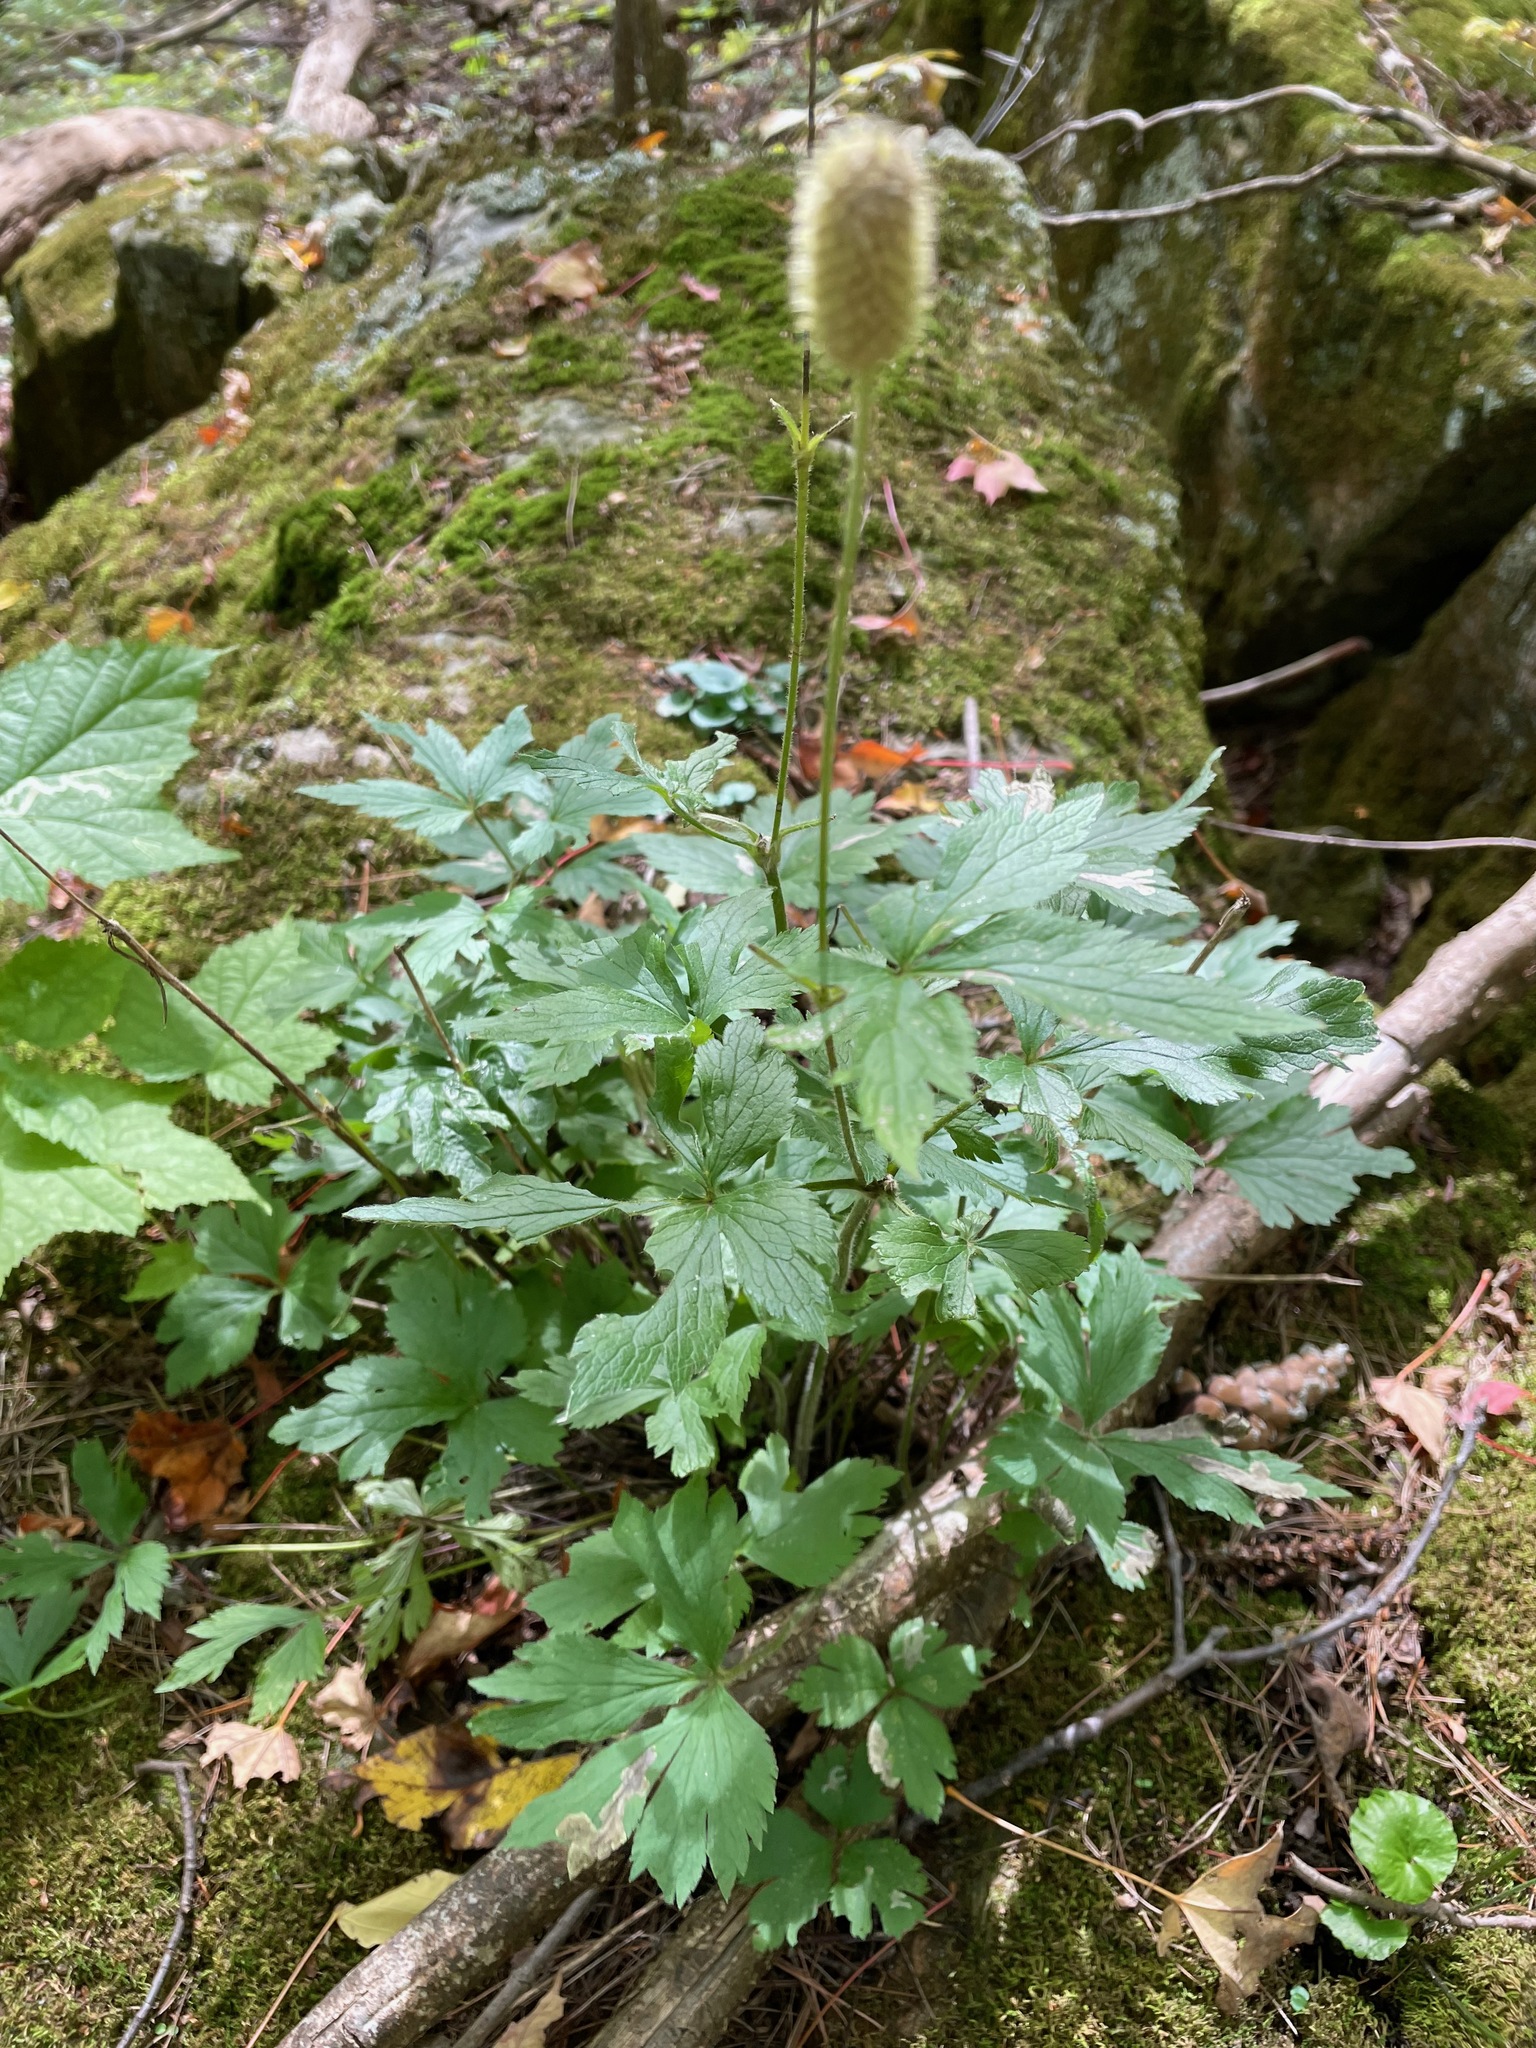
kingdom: Plantae
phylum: Tracheophyta
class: Magnoliopsida
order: Ranunculales
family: Ranunculaceae
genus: Anemone
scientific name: Anemone virginiana
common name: Tall anemone
